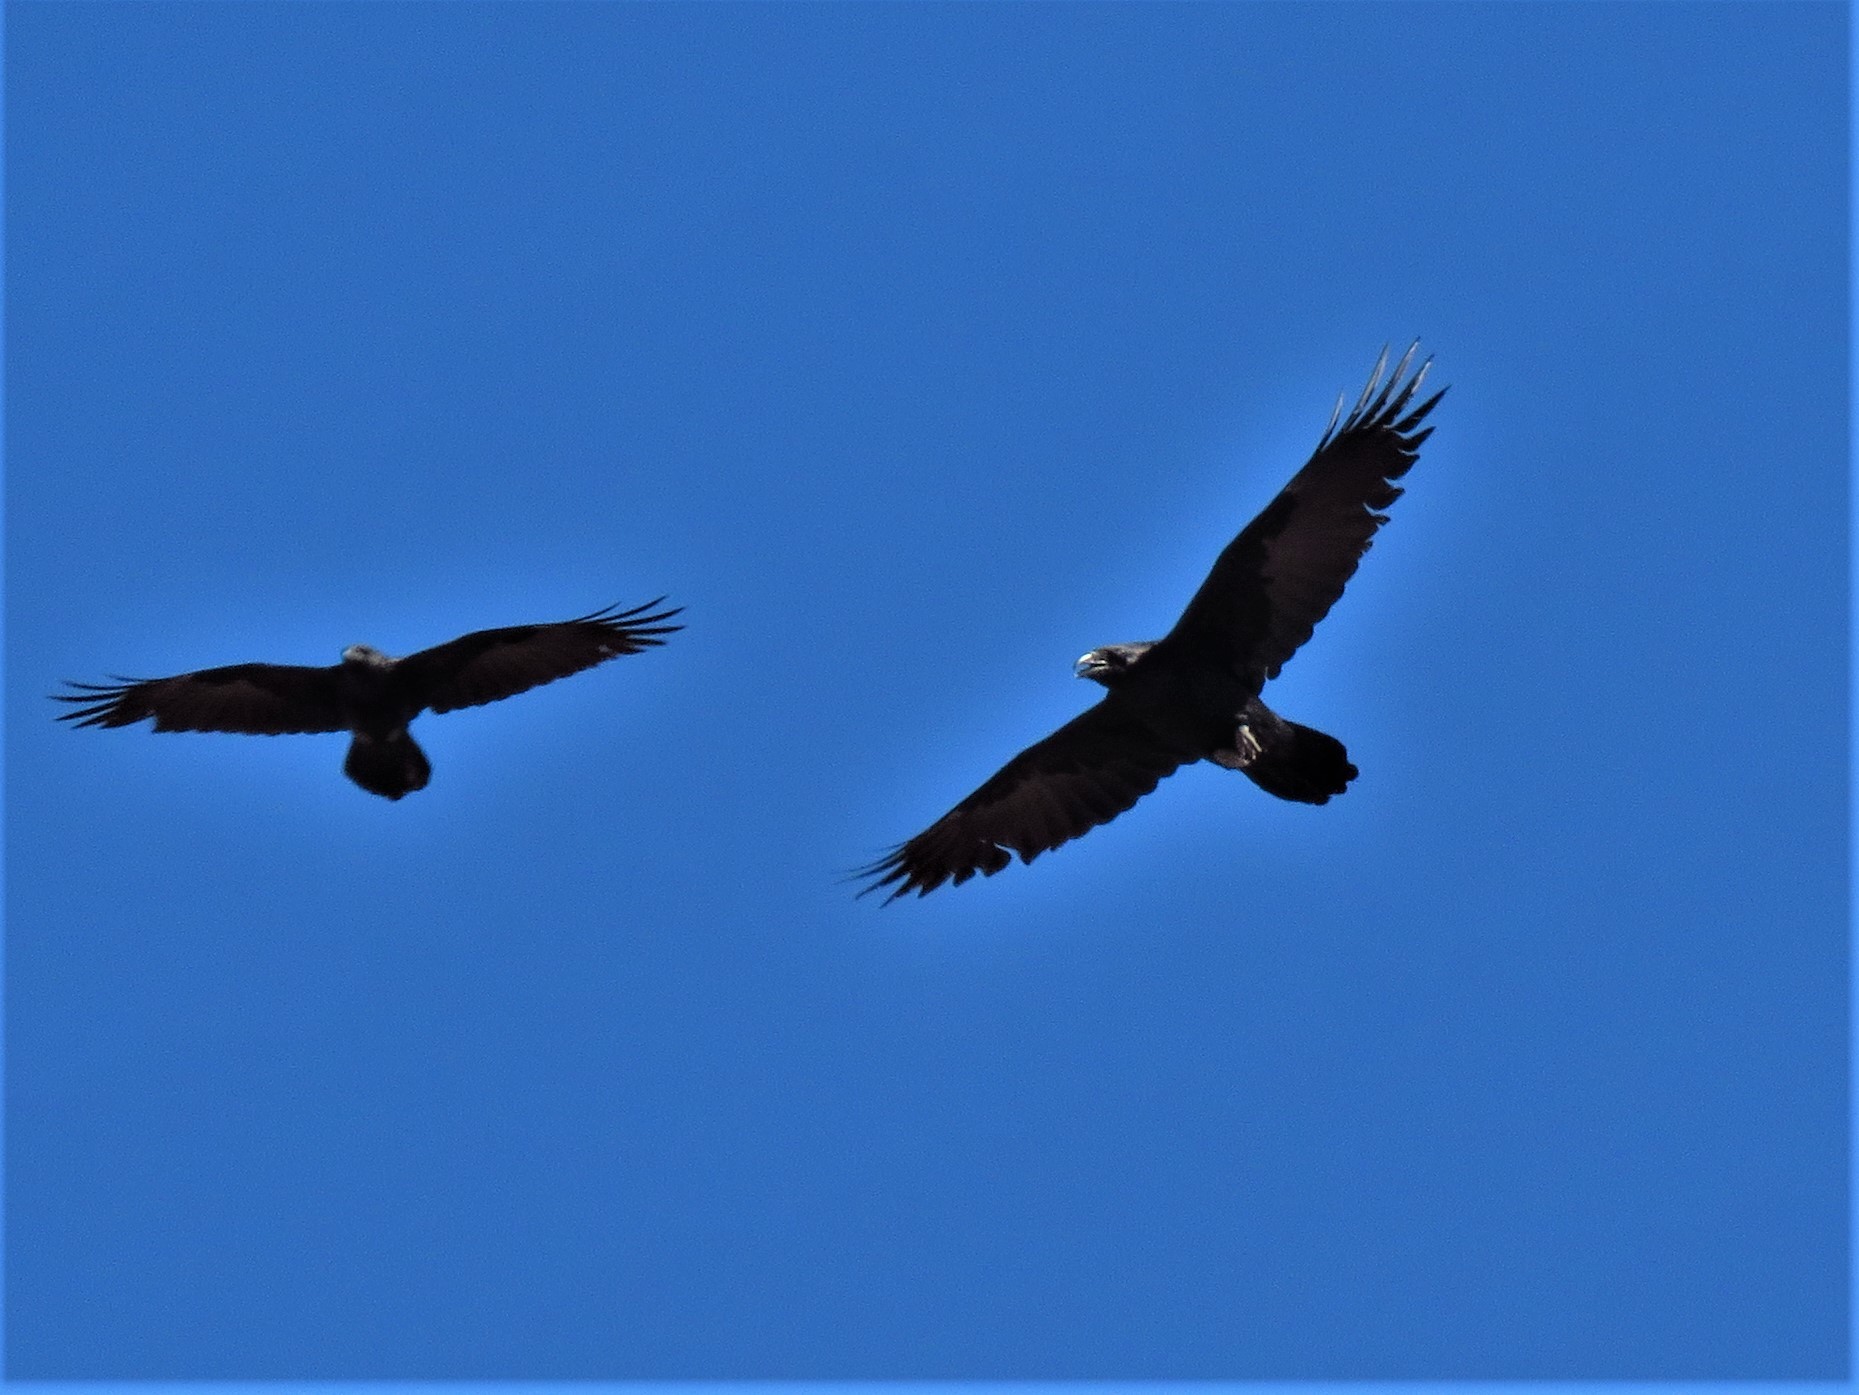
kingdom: Animalia
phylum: Chordata
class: Aves
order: Passeriformes
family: Corvidae
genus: Corvus
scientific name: Corvus cryptoleucus
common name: Chihuahuan raven
